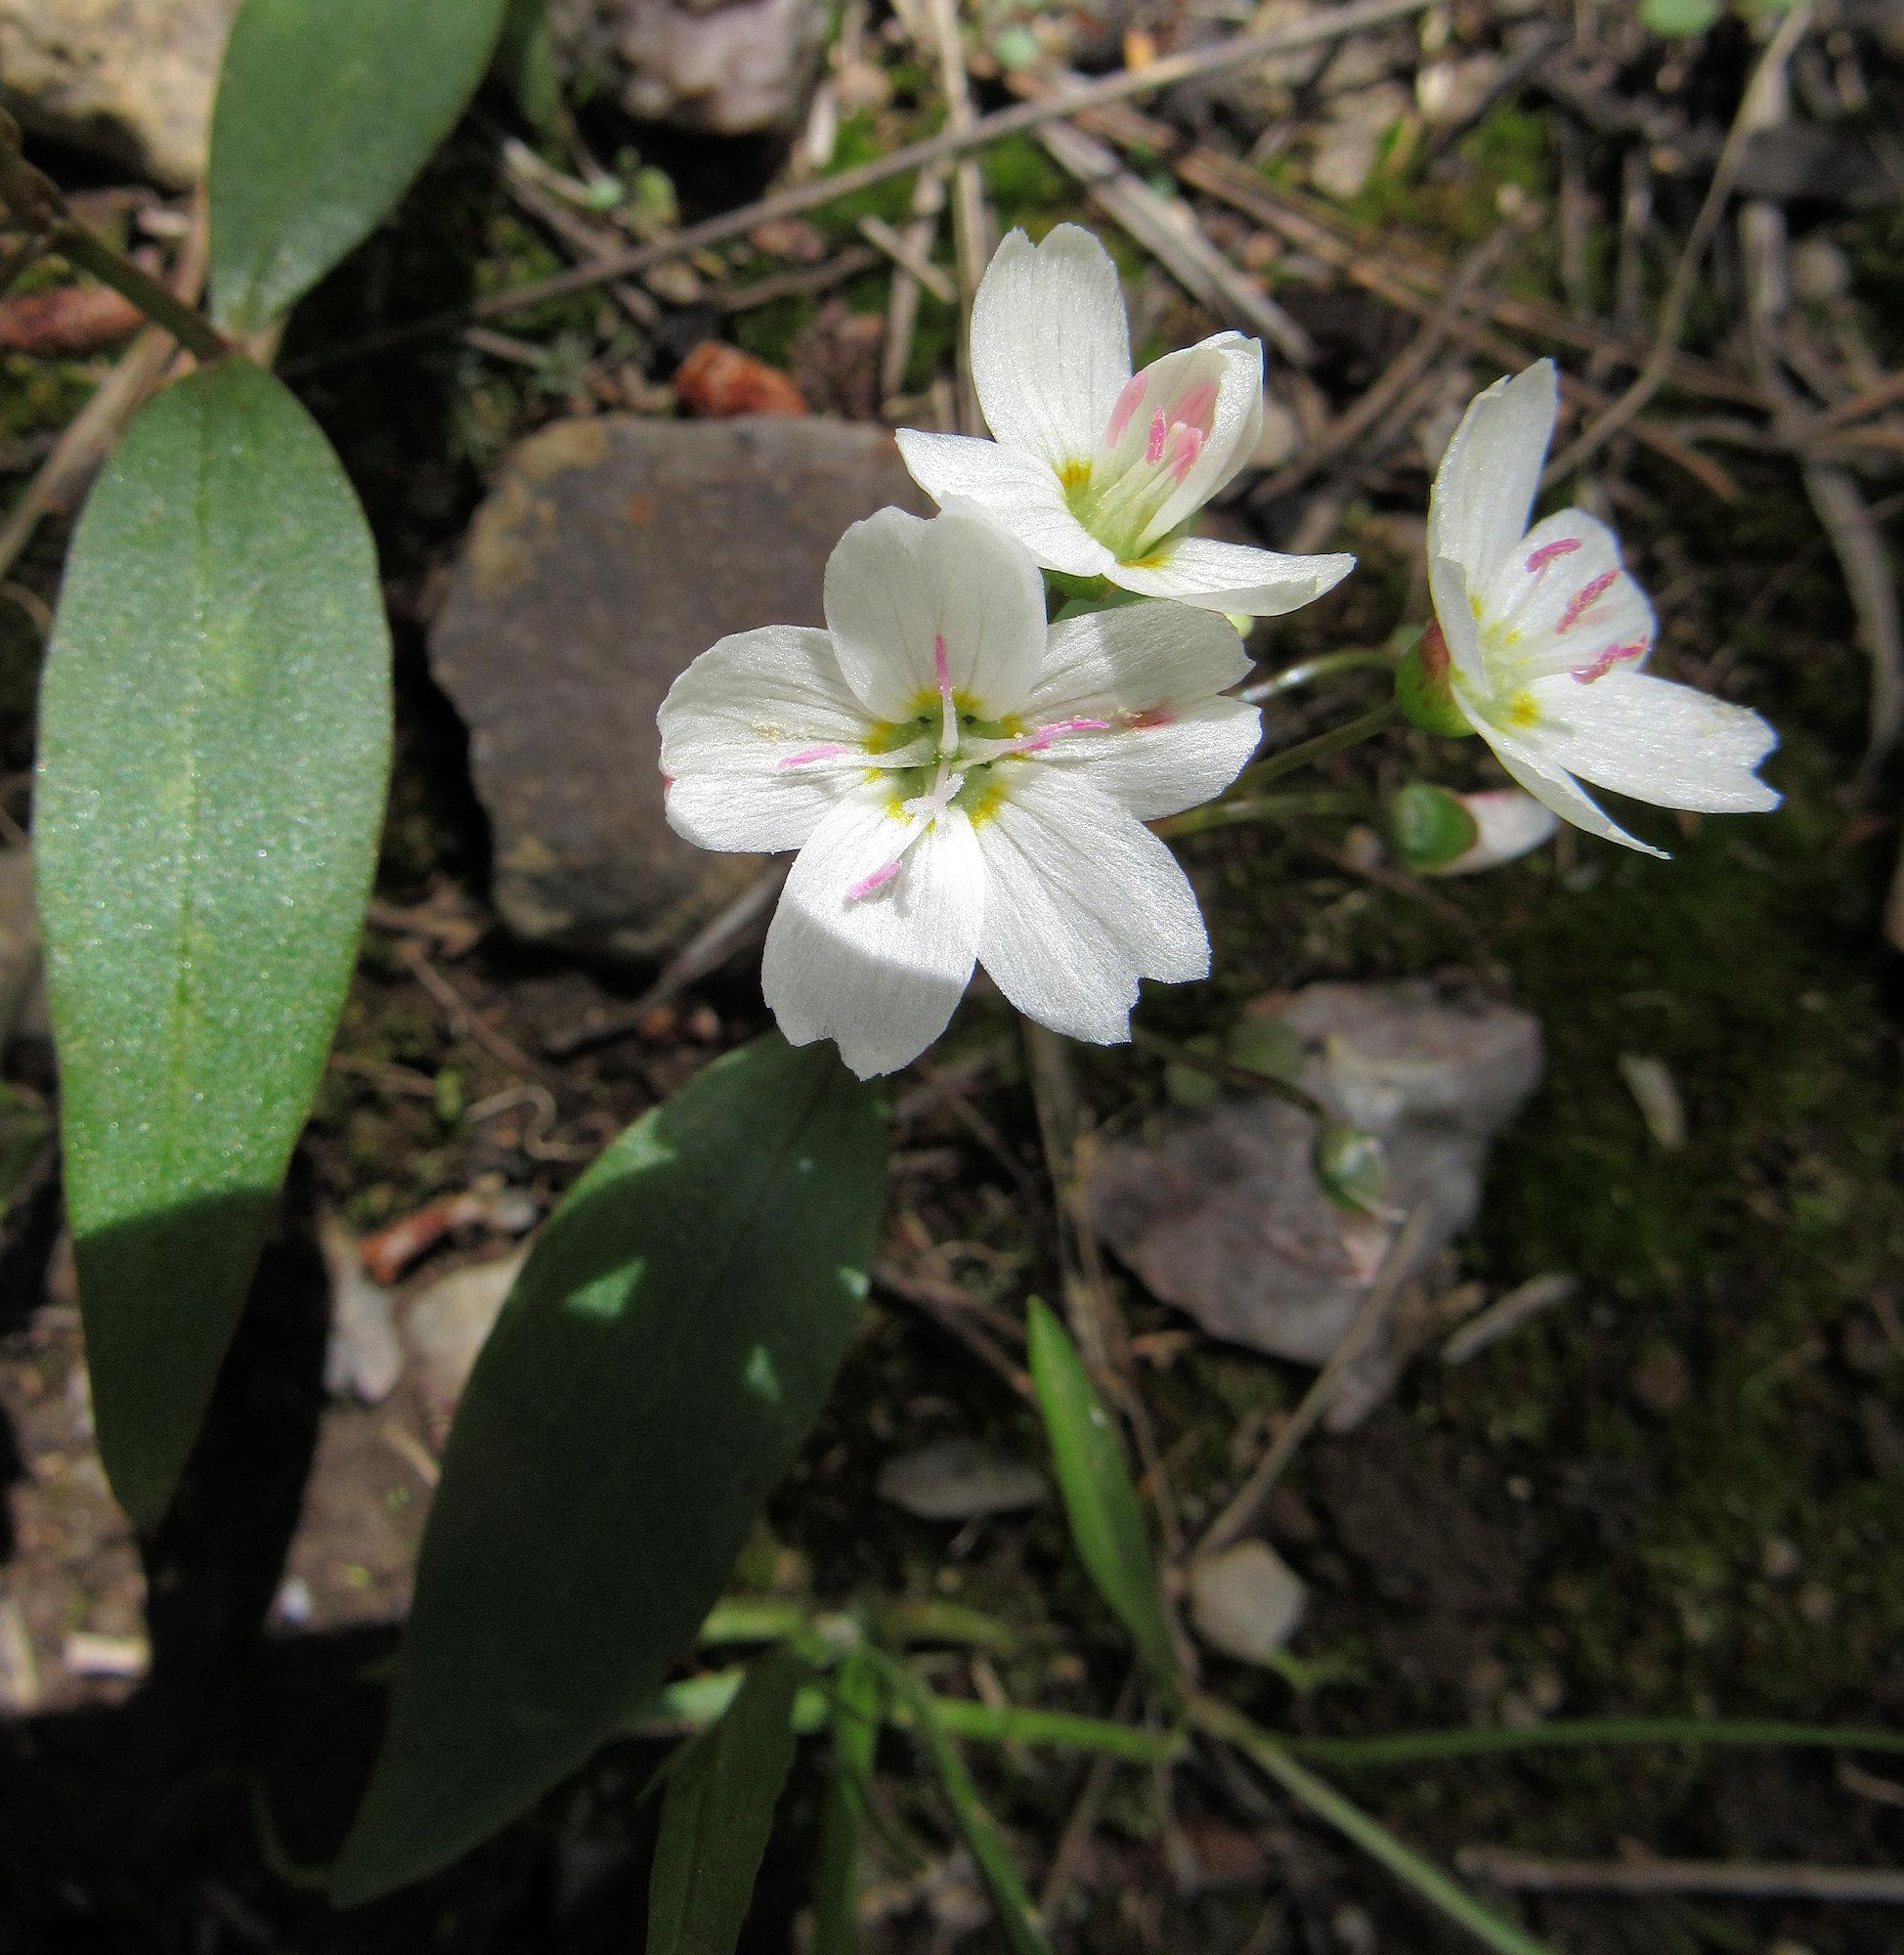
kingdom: Plantae
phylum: Tracheophyta
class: Magnoliopsida
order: Caryophyllales
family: Montiaceae
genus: Claytonia
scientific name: Claytonia lanceolata
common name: Western spring-beauty
